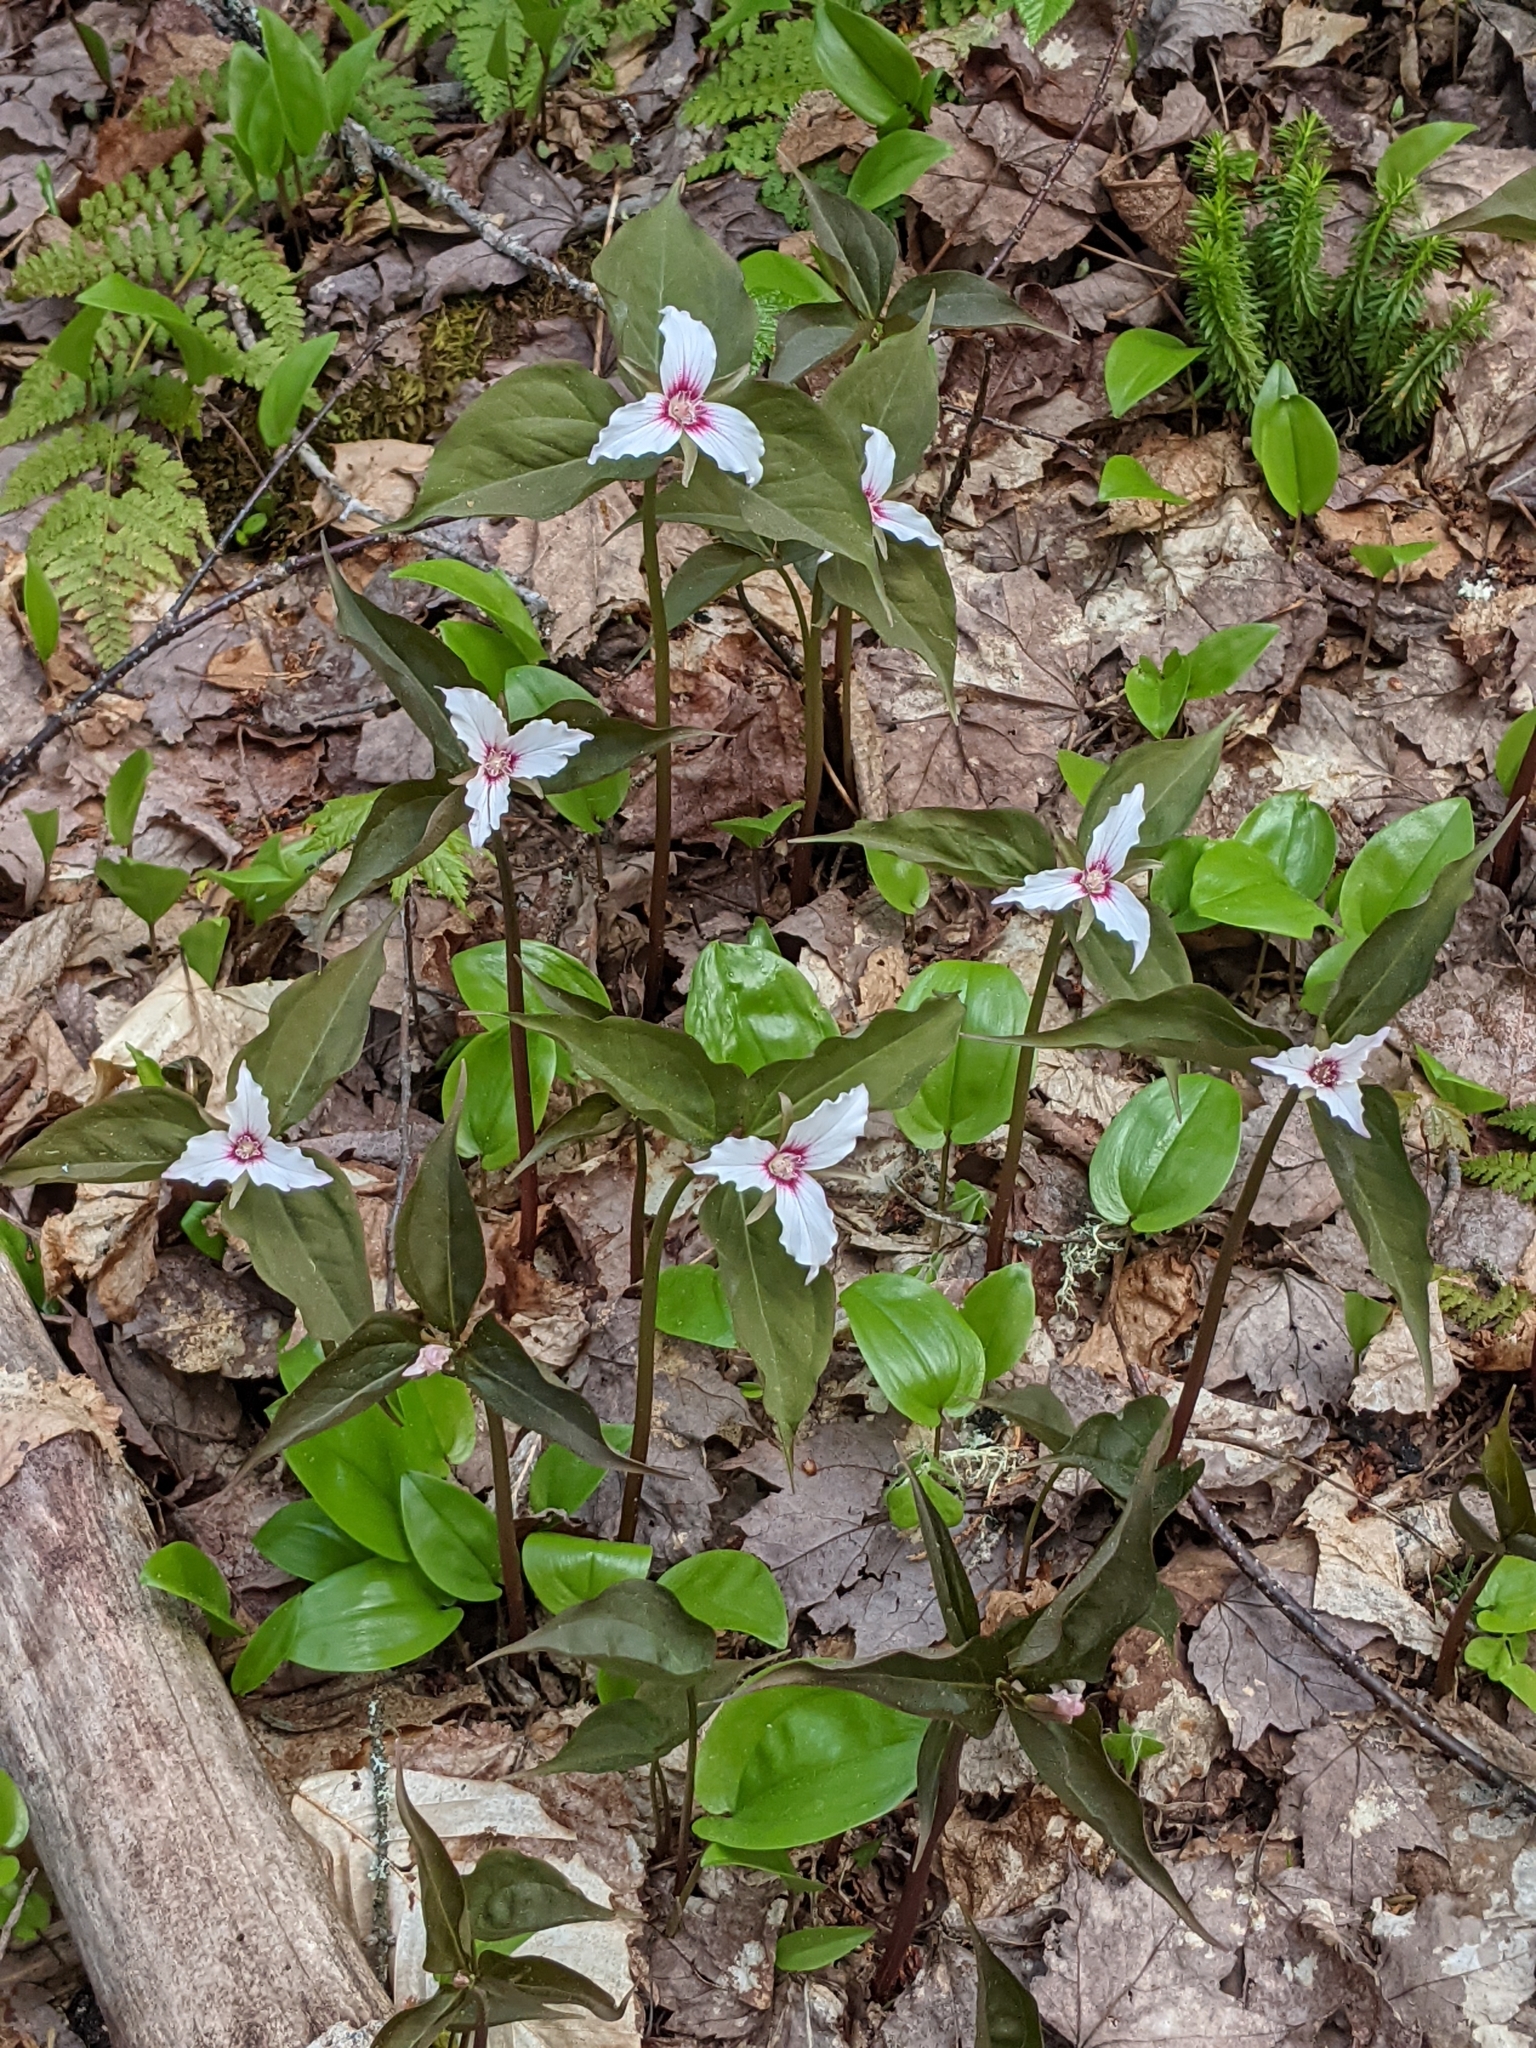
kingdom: Plantae
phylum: Tracheophyta
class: Liliopsida
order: Liliales
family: Melanthiaceae
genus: Trillium
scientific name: Trillium undulatum
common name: Paint trillium
